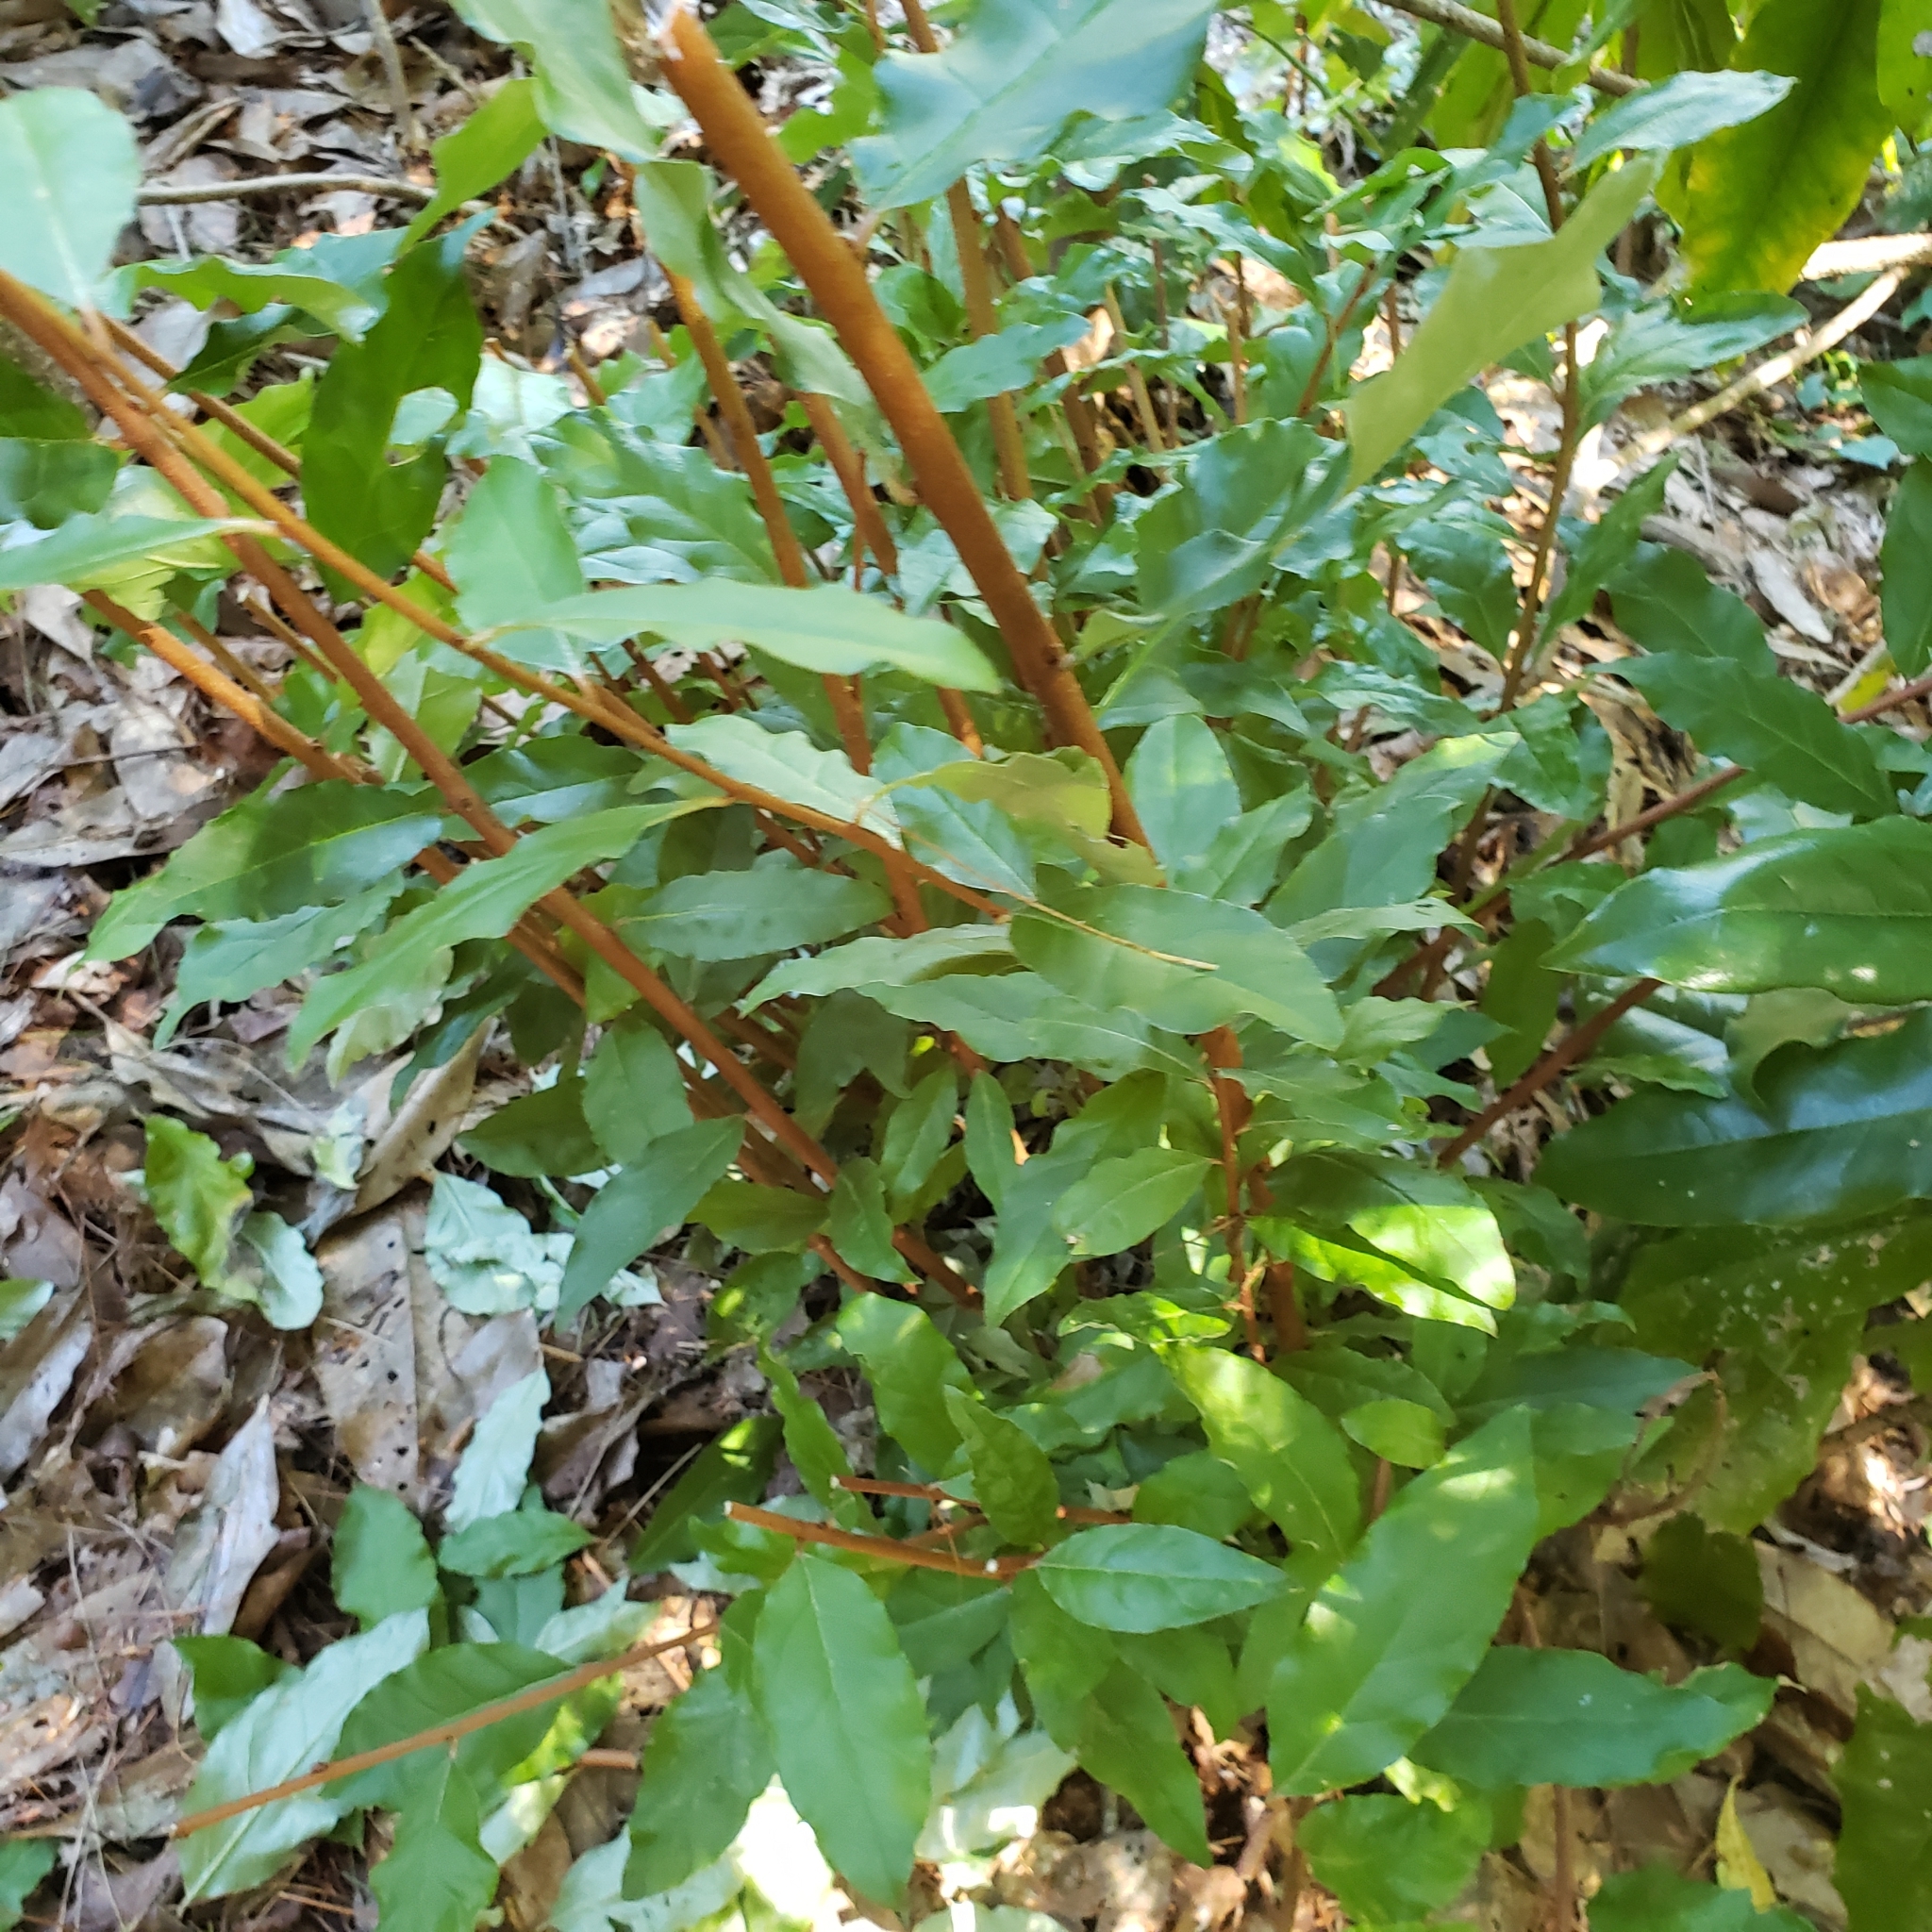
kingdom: Plantae
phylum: Tracheophyta
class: Magnoliopsida
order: Rosales
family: Elaeagnaceae
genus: Elaeagnus
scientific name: Elaeagnus pungens
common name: Spiny oleaster
